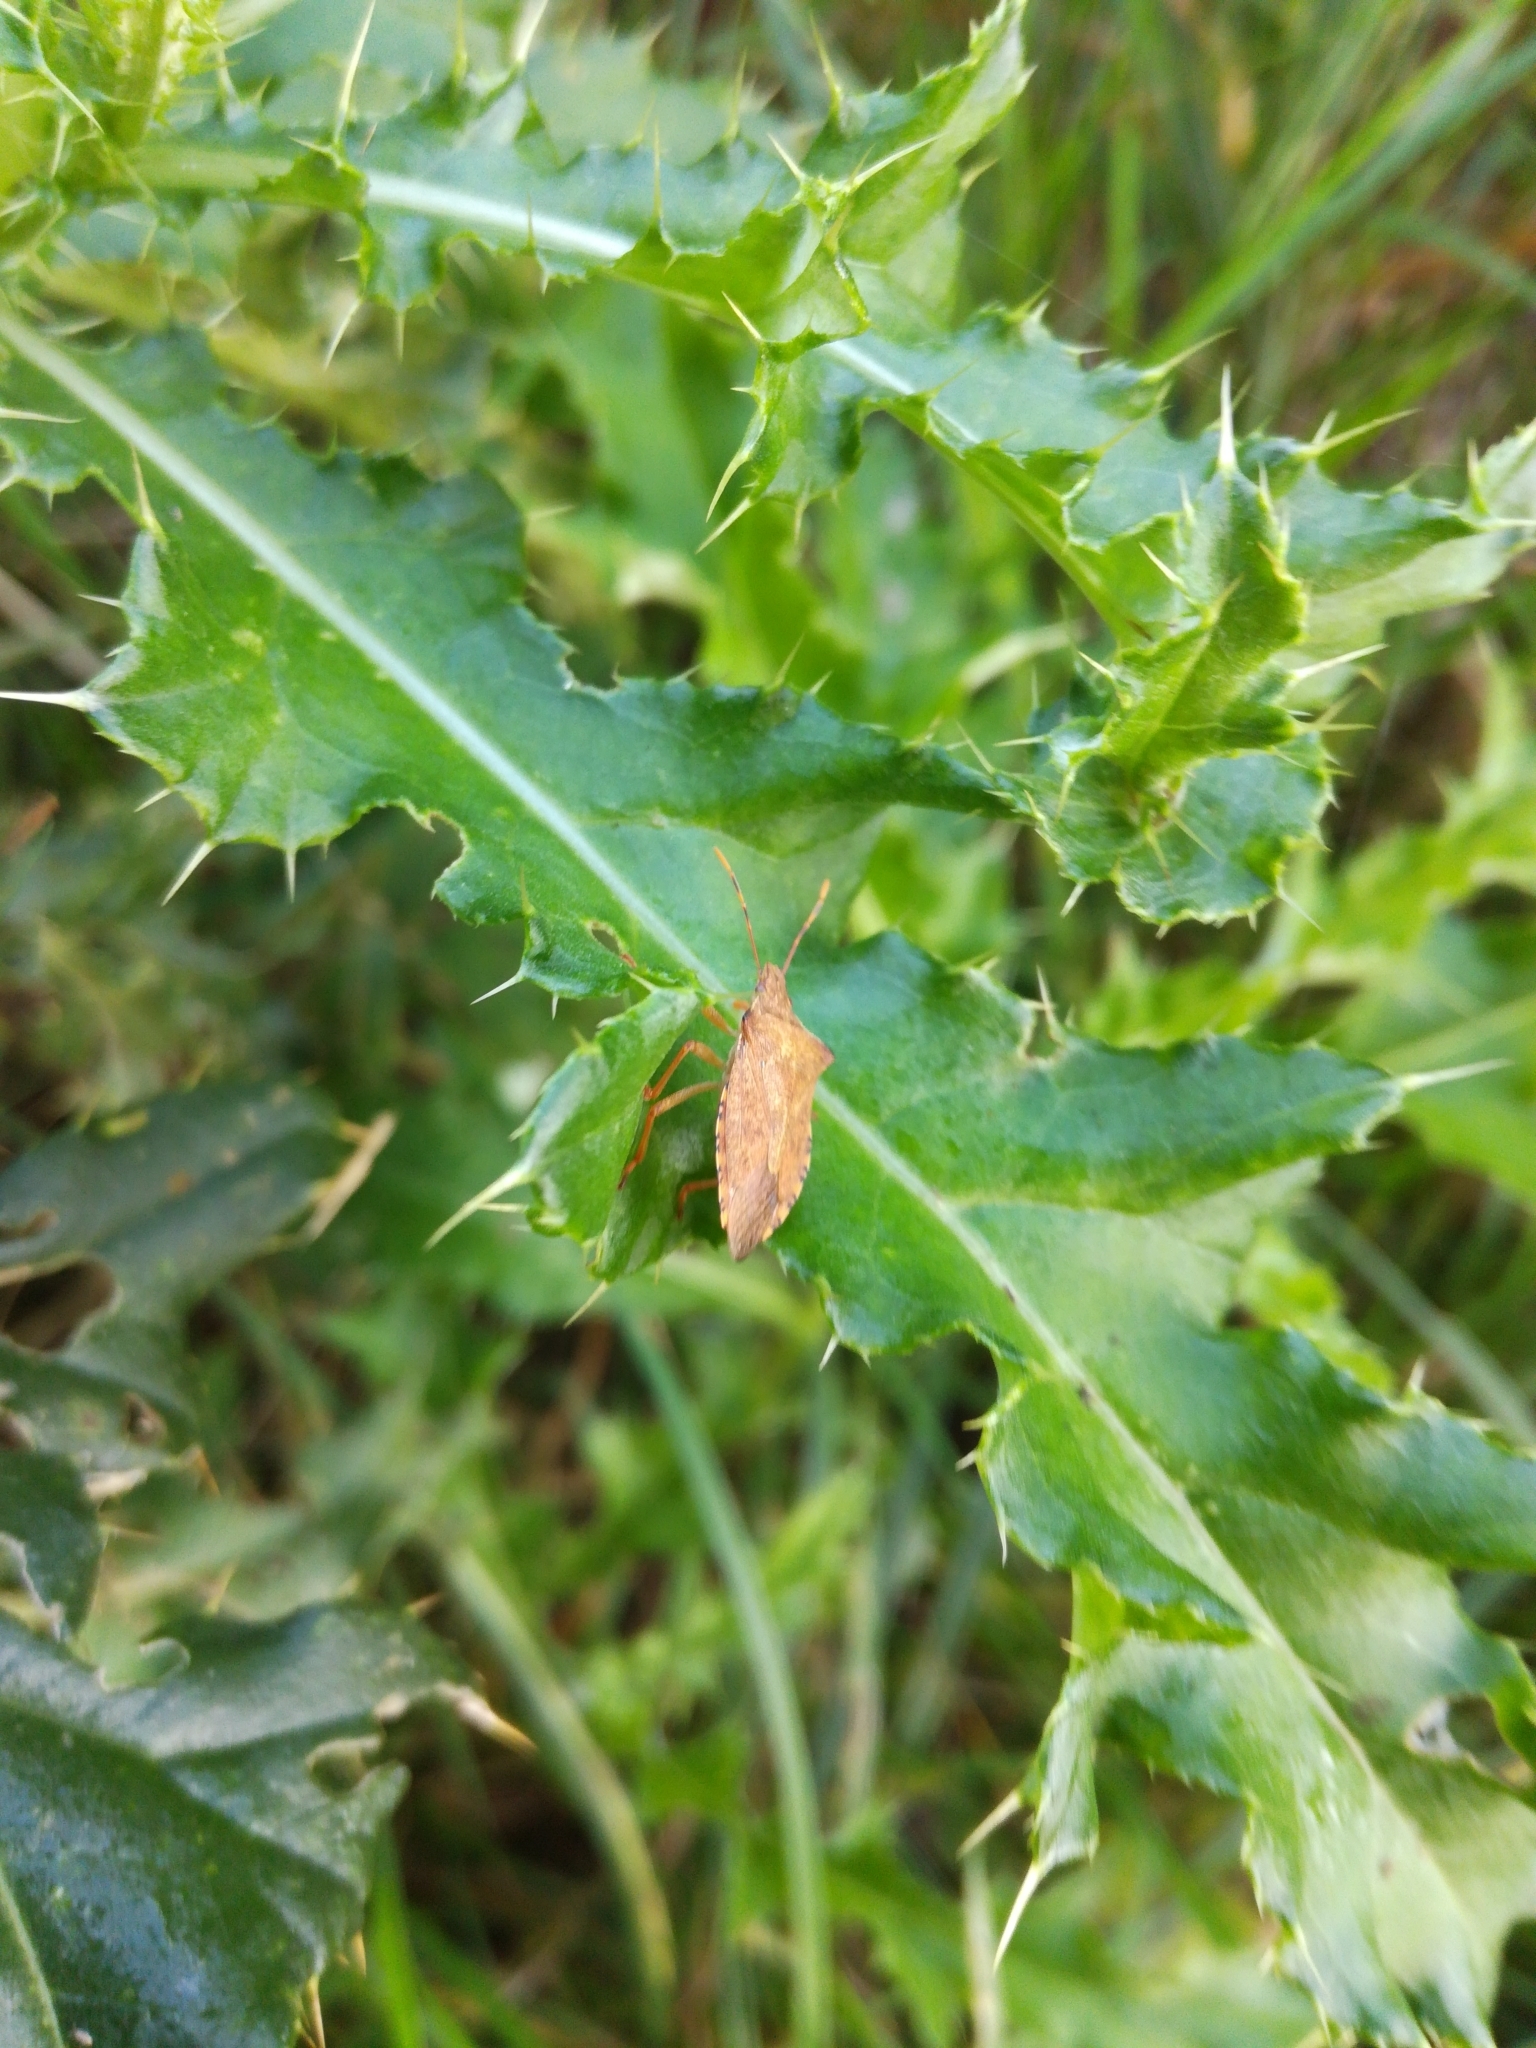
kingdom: Animalia
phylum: Arthropoda
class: Insecta
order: Hemiptera
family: Pentatomidae
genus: Arma
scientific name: Arma custos
